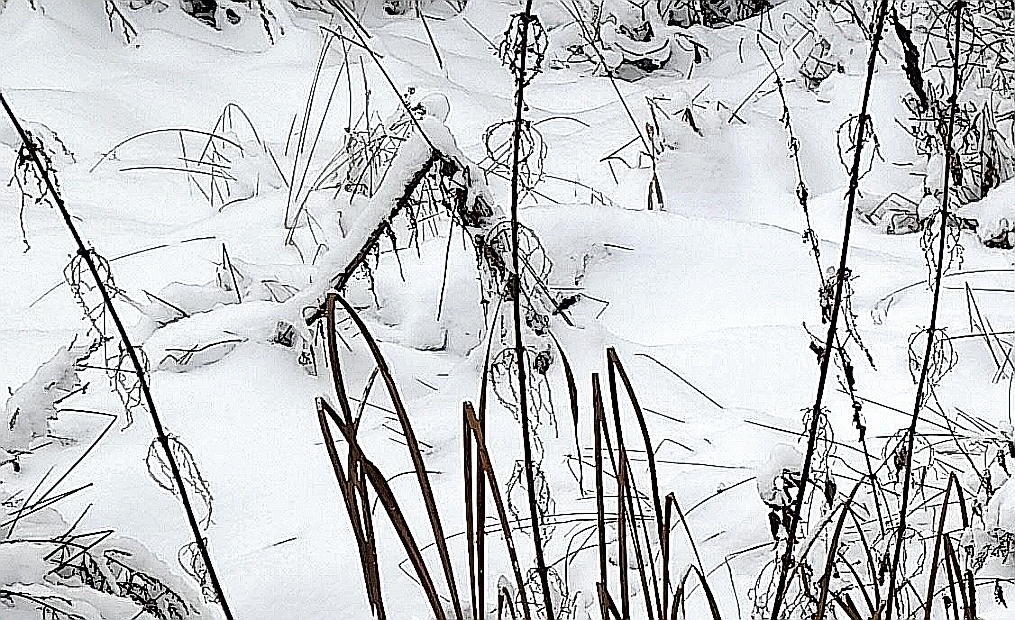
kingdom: Plantae
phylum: Tracheophyta
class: Magnoliopsida
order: Rosales
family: Urticaceae
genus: Urtica
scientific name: Urtica dioica
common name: Common nettle
